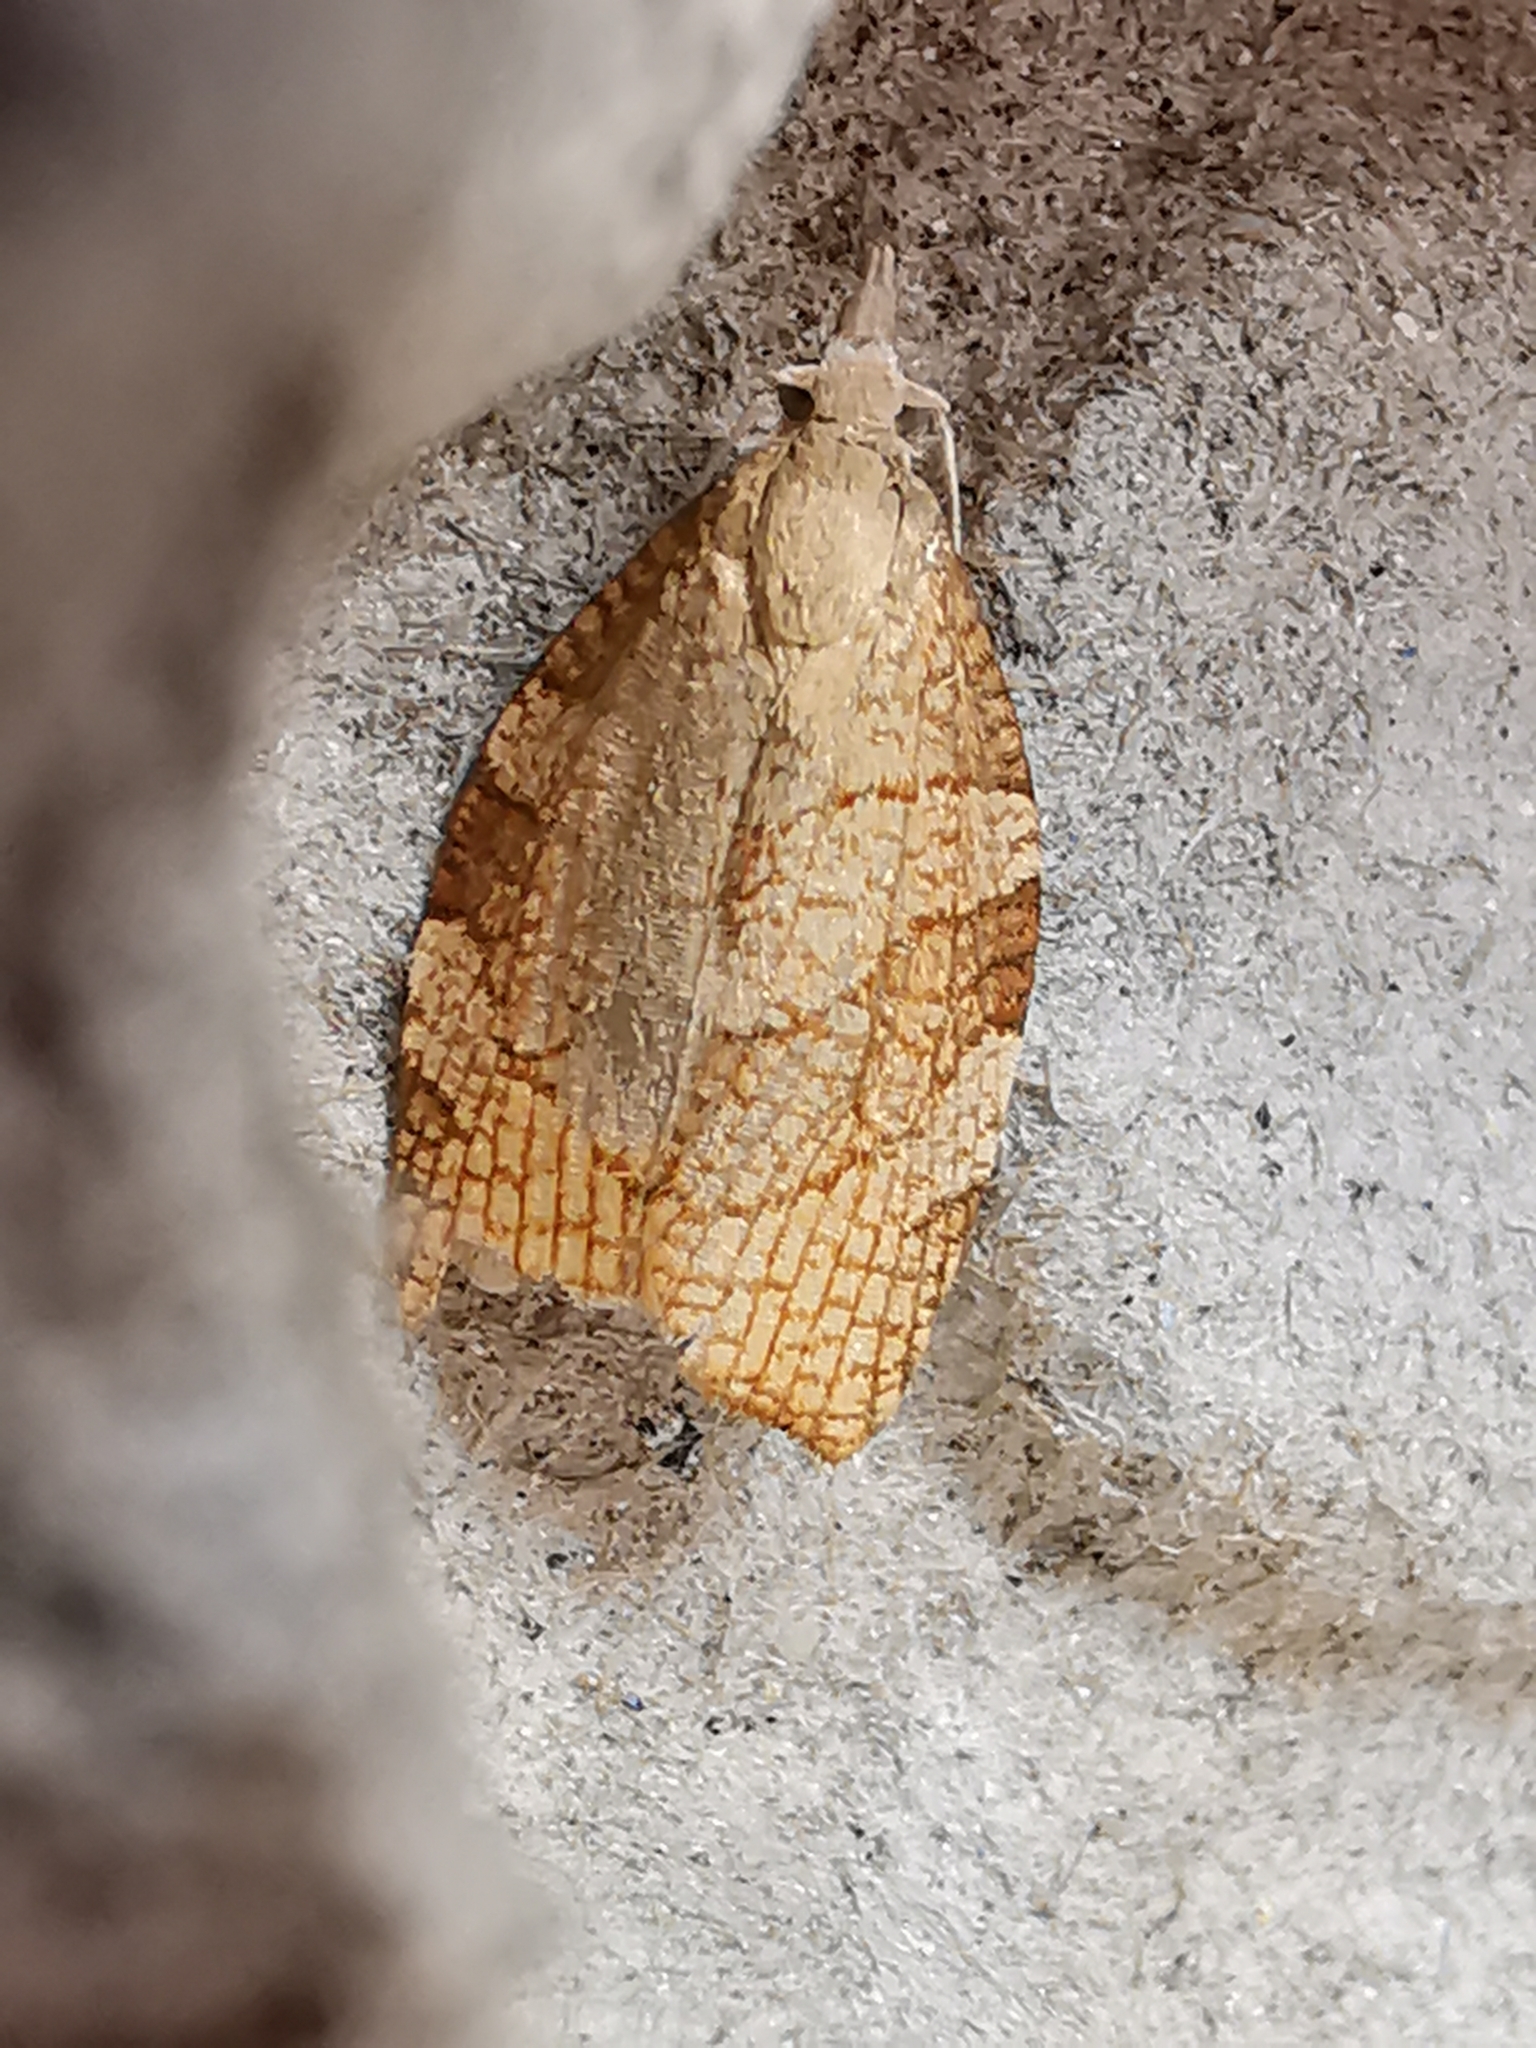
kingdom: Animalia
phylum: Arthropoda
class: Insecta
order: Lepidoptera
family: Tortricidae
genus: Pandemis
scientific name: Pandemis corylana
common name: Chequered fruit-tree tortrix
